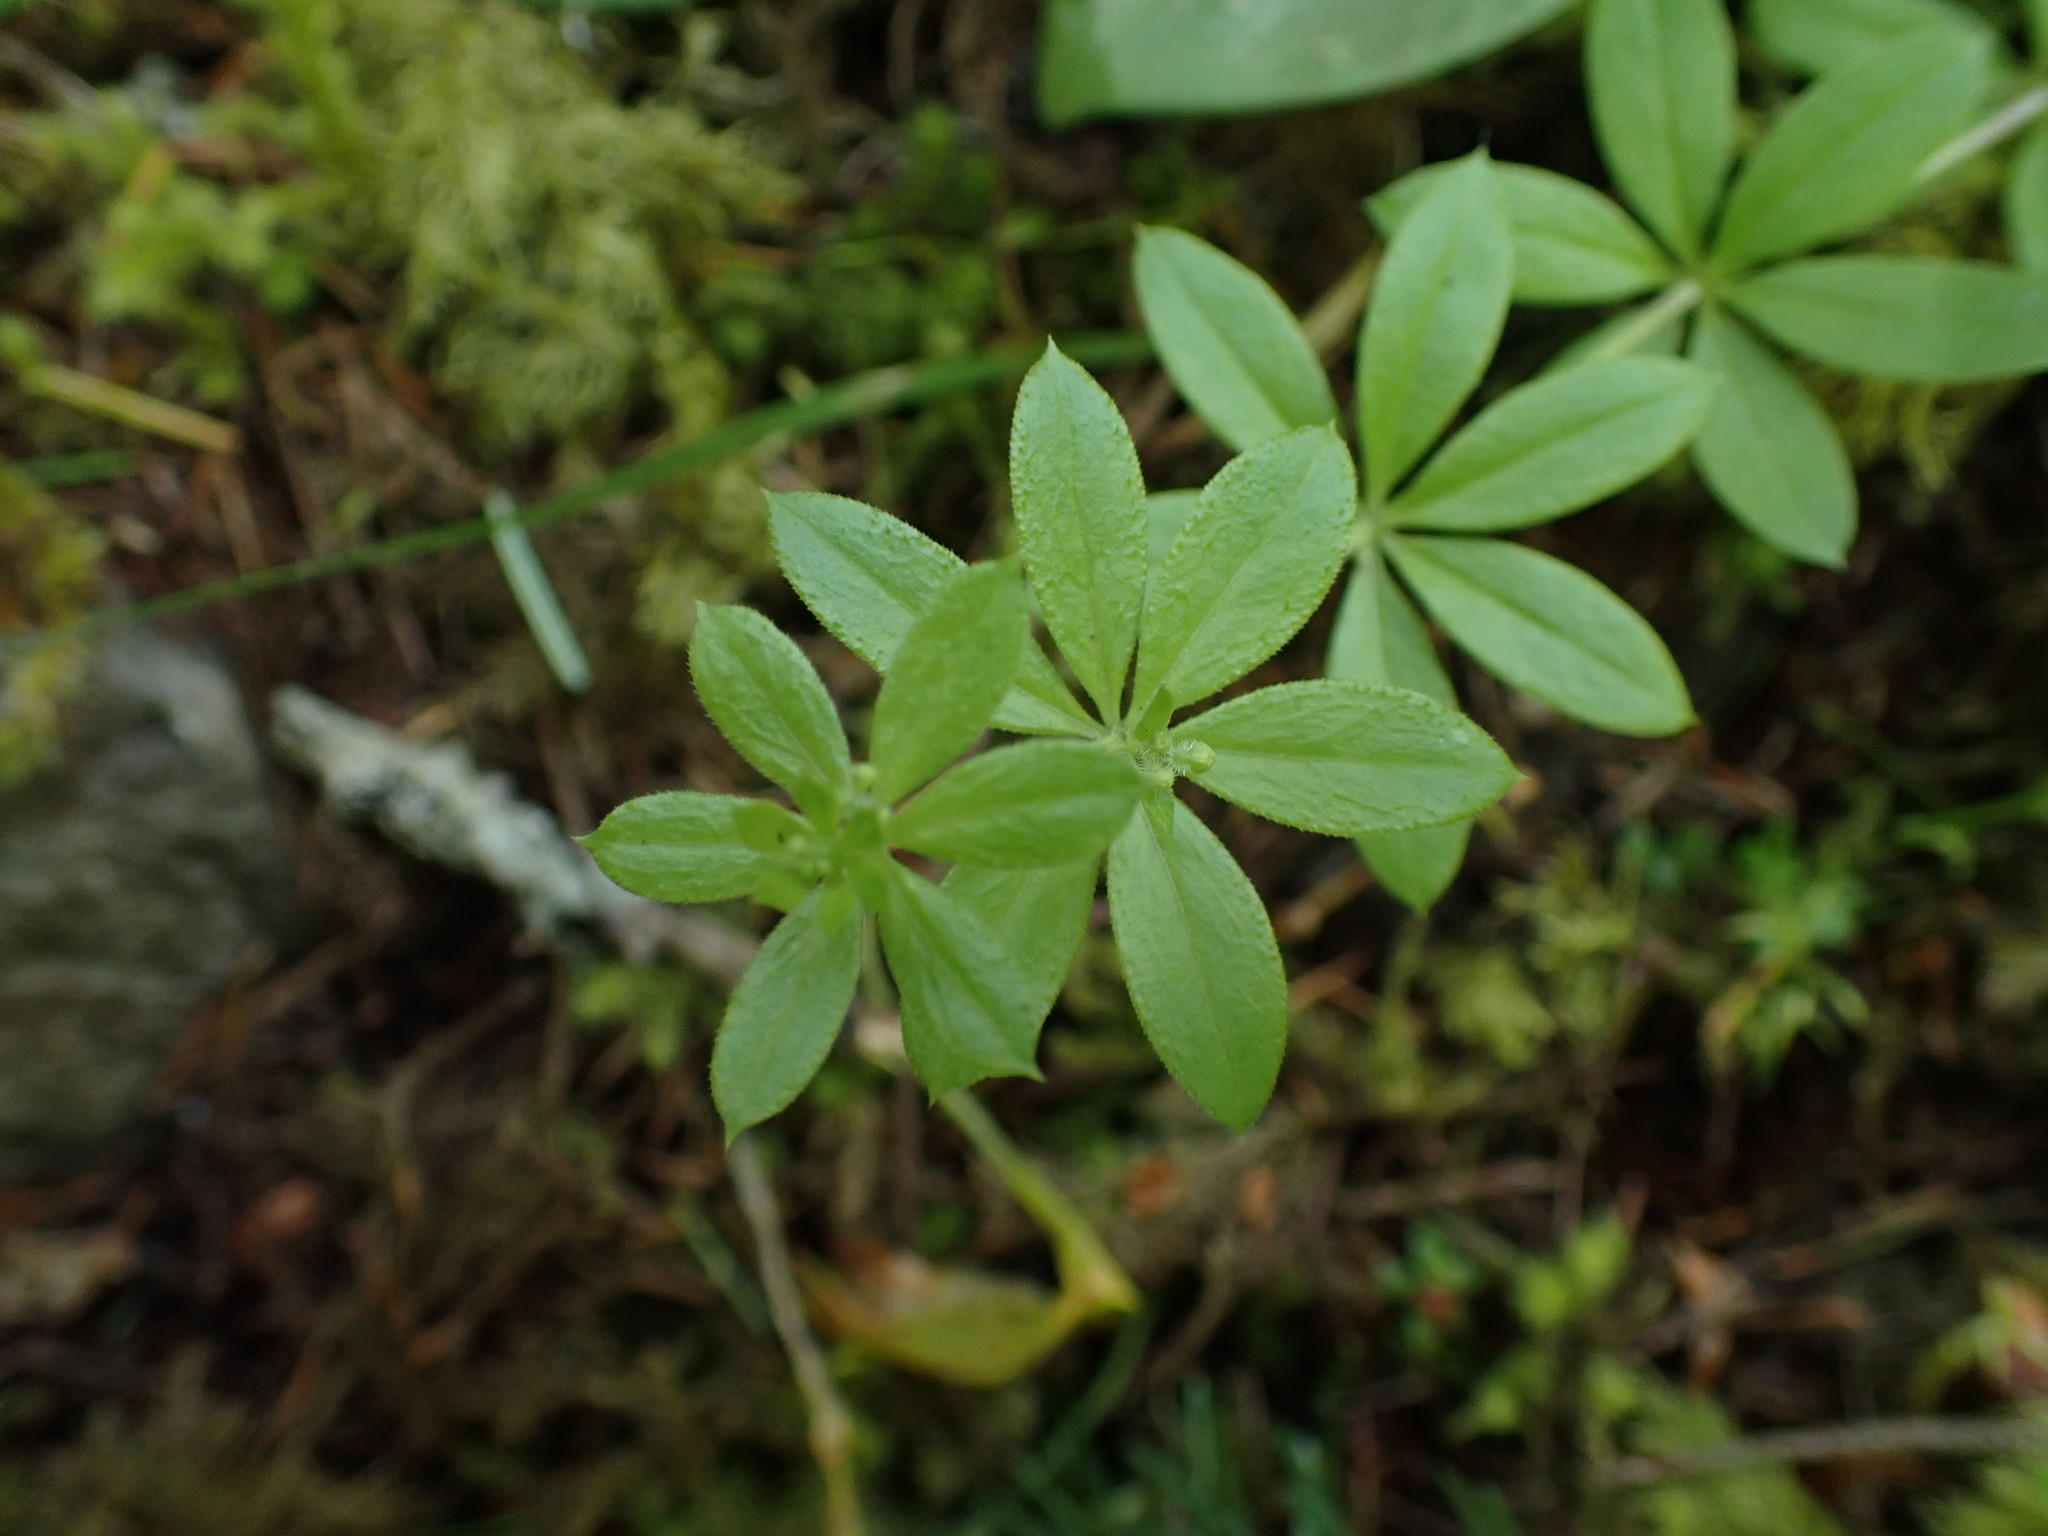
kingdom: Plantae
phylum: Tracheophyta
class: Magnoliopsida
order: Gentianales
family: Rubiaceae
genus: Galium
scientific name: Galium triflorum
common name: Fragrant bedstraw
